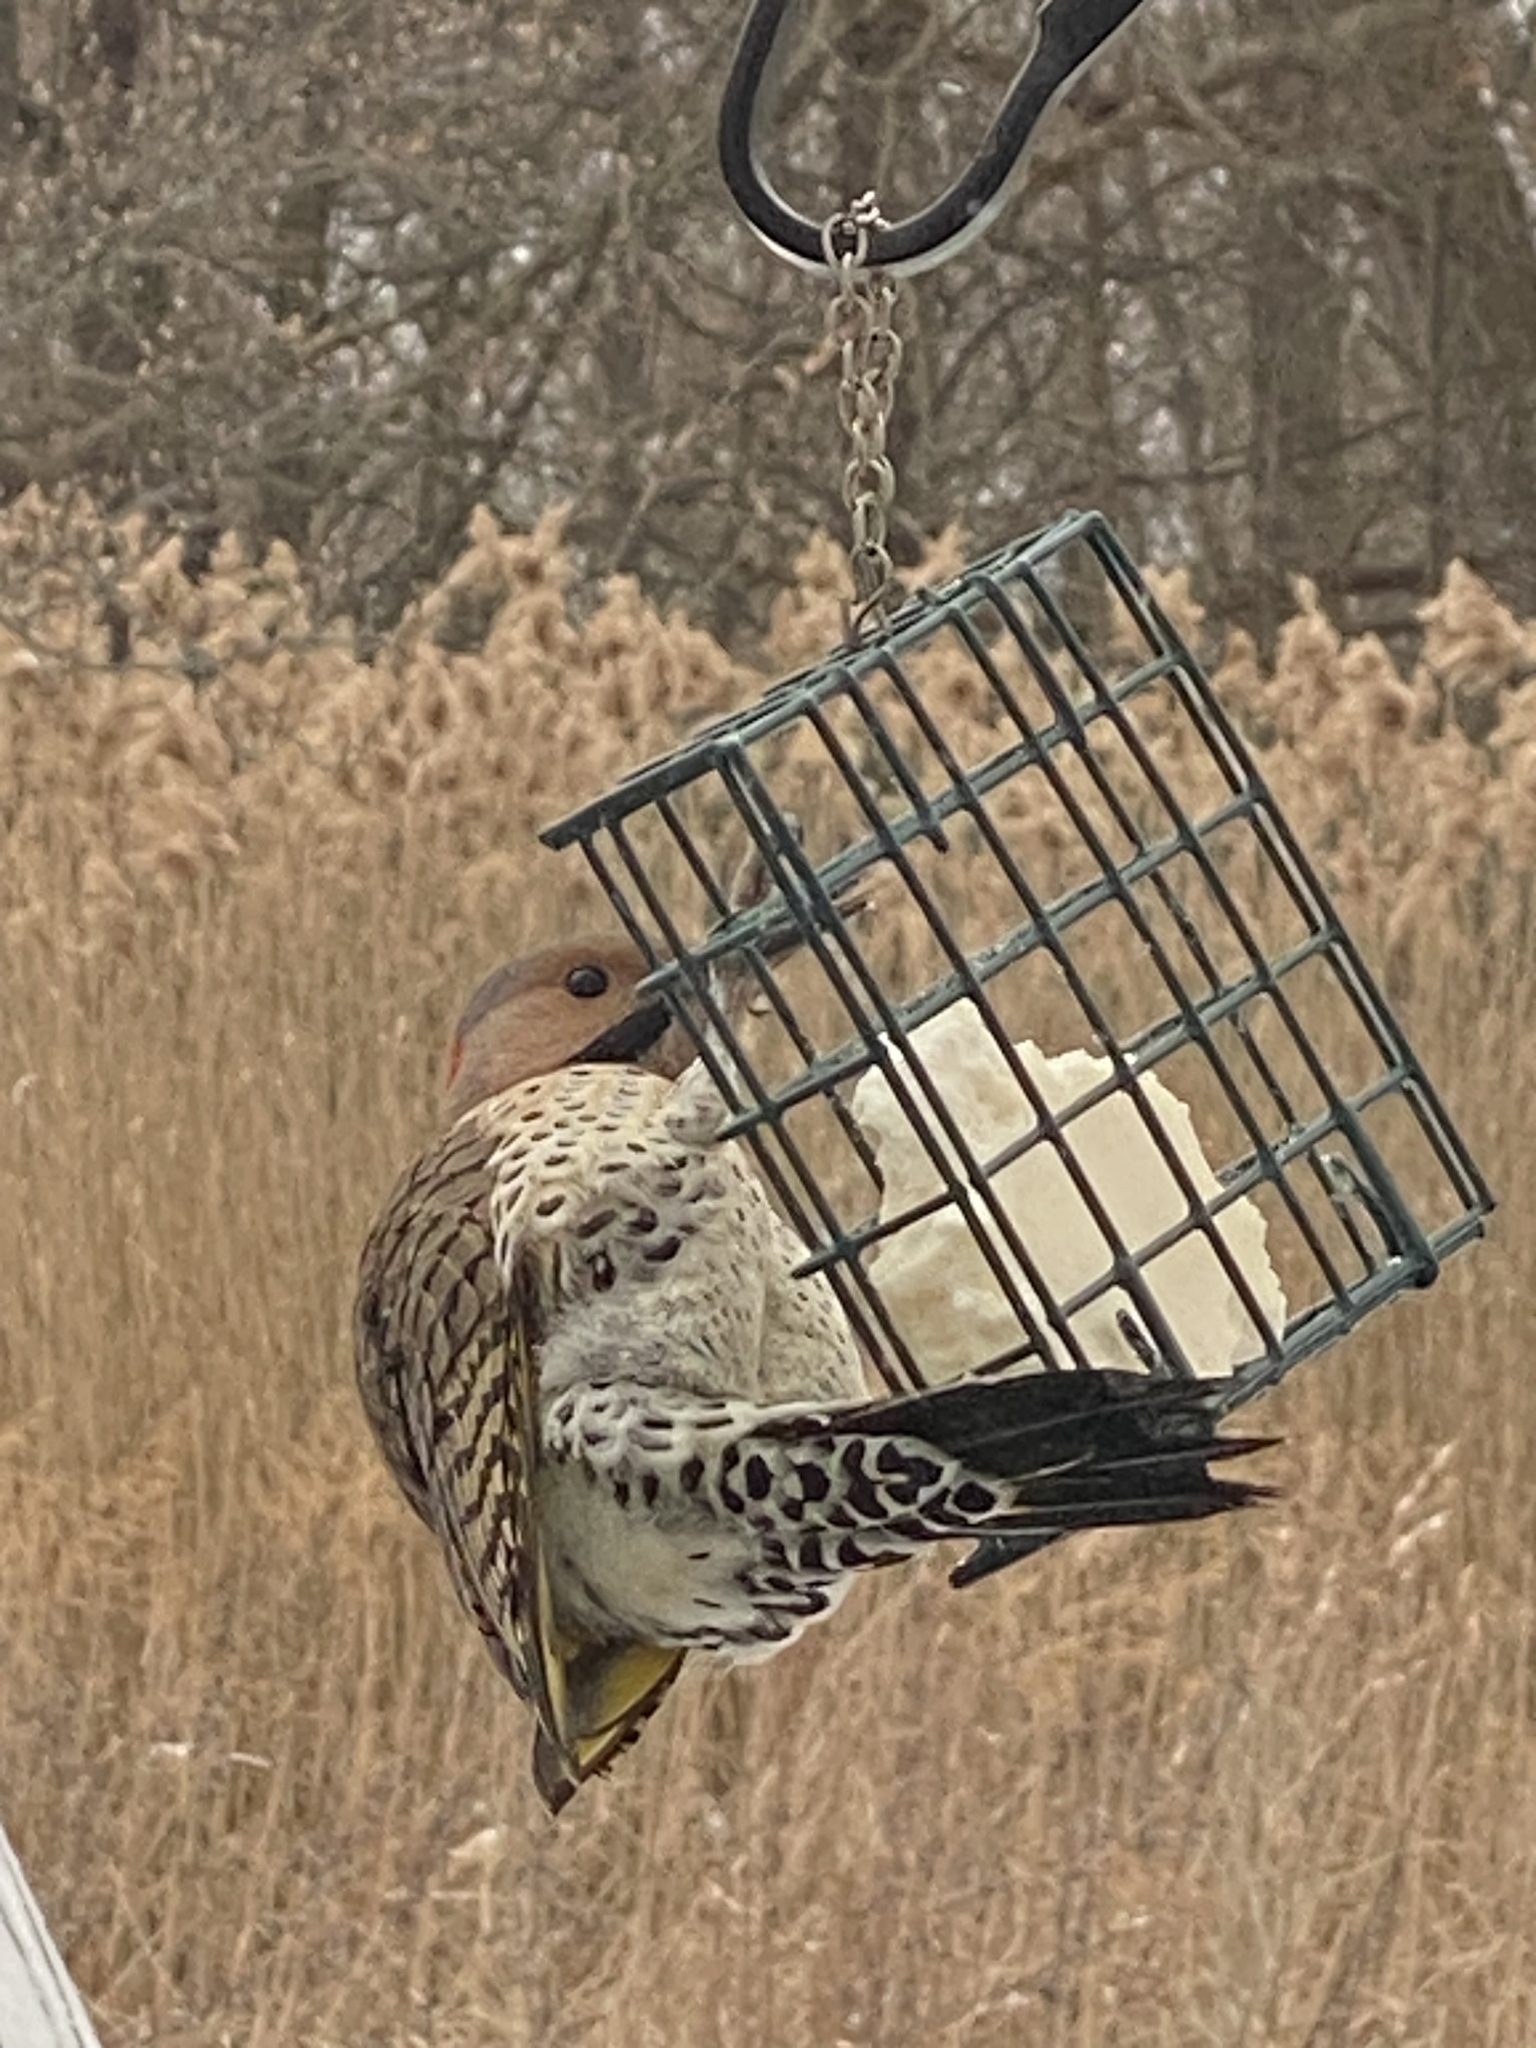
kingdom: Animalia
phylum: Chordata
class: Aves
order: Piciformes
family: Picidae
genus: Colaptes
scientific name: Colaptes auratus
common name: Northern flicker
